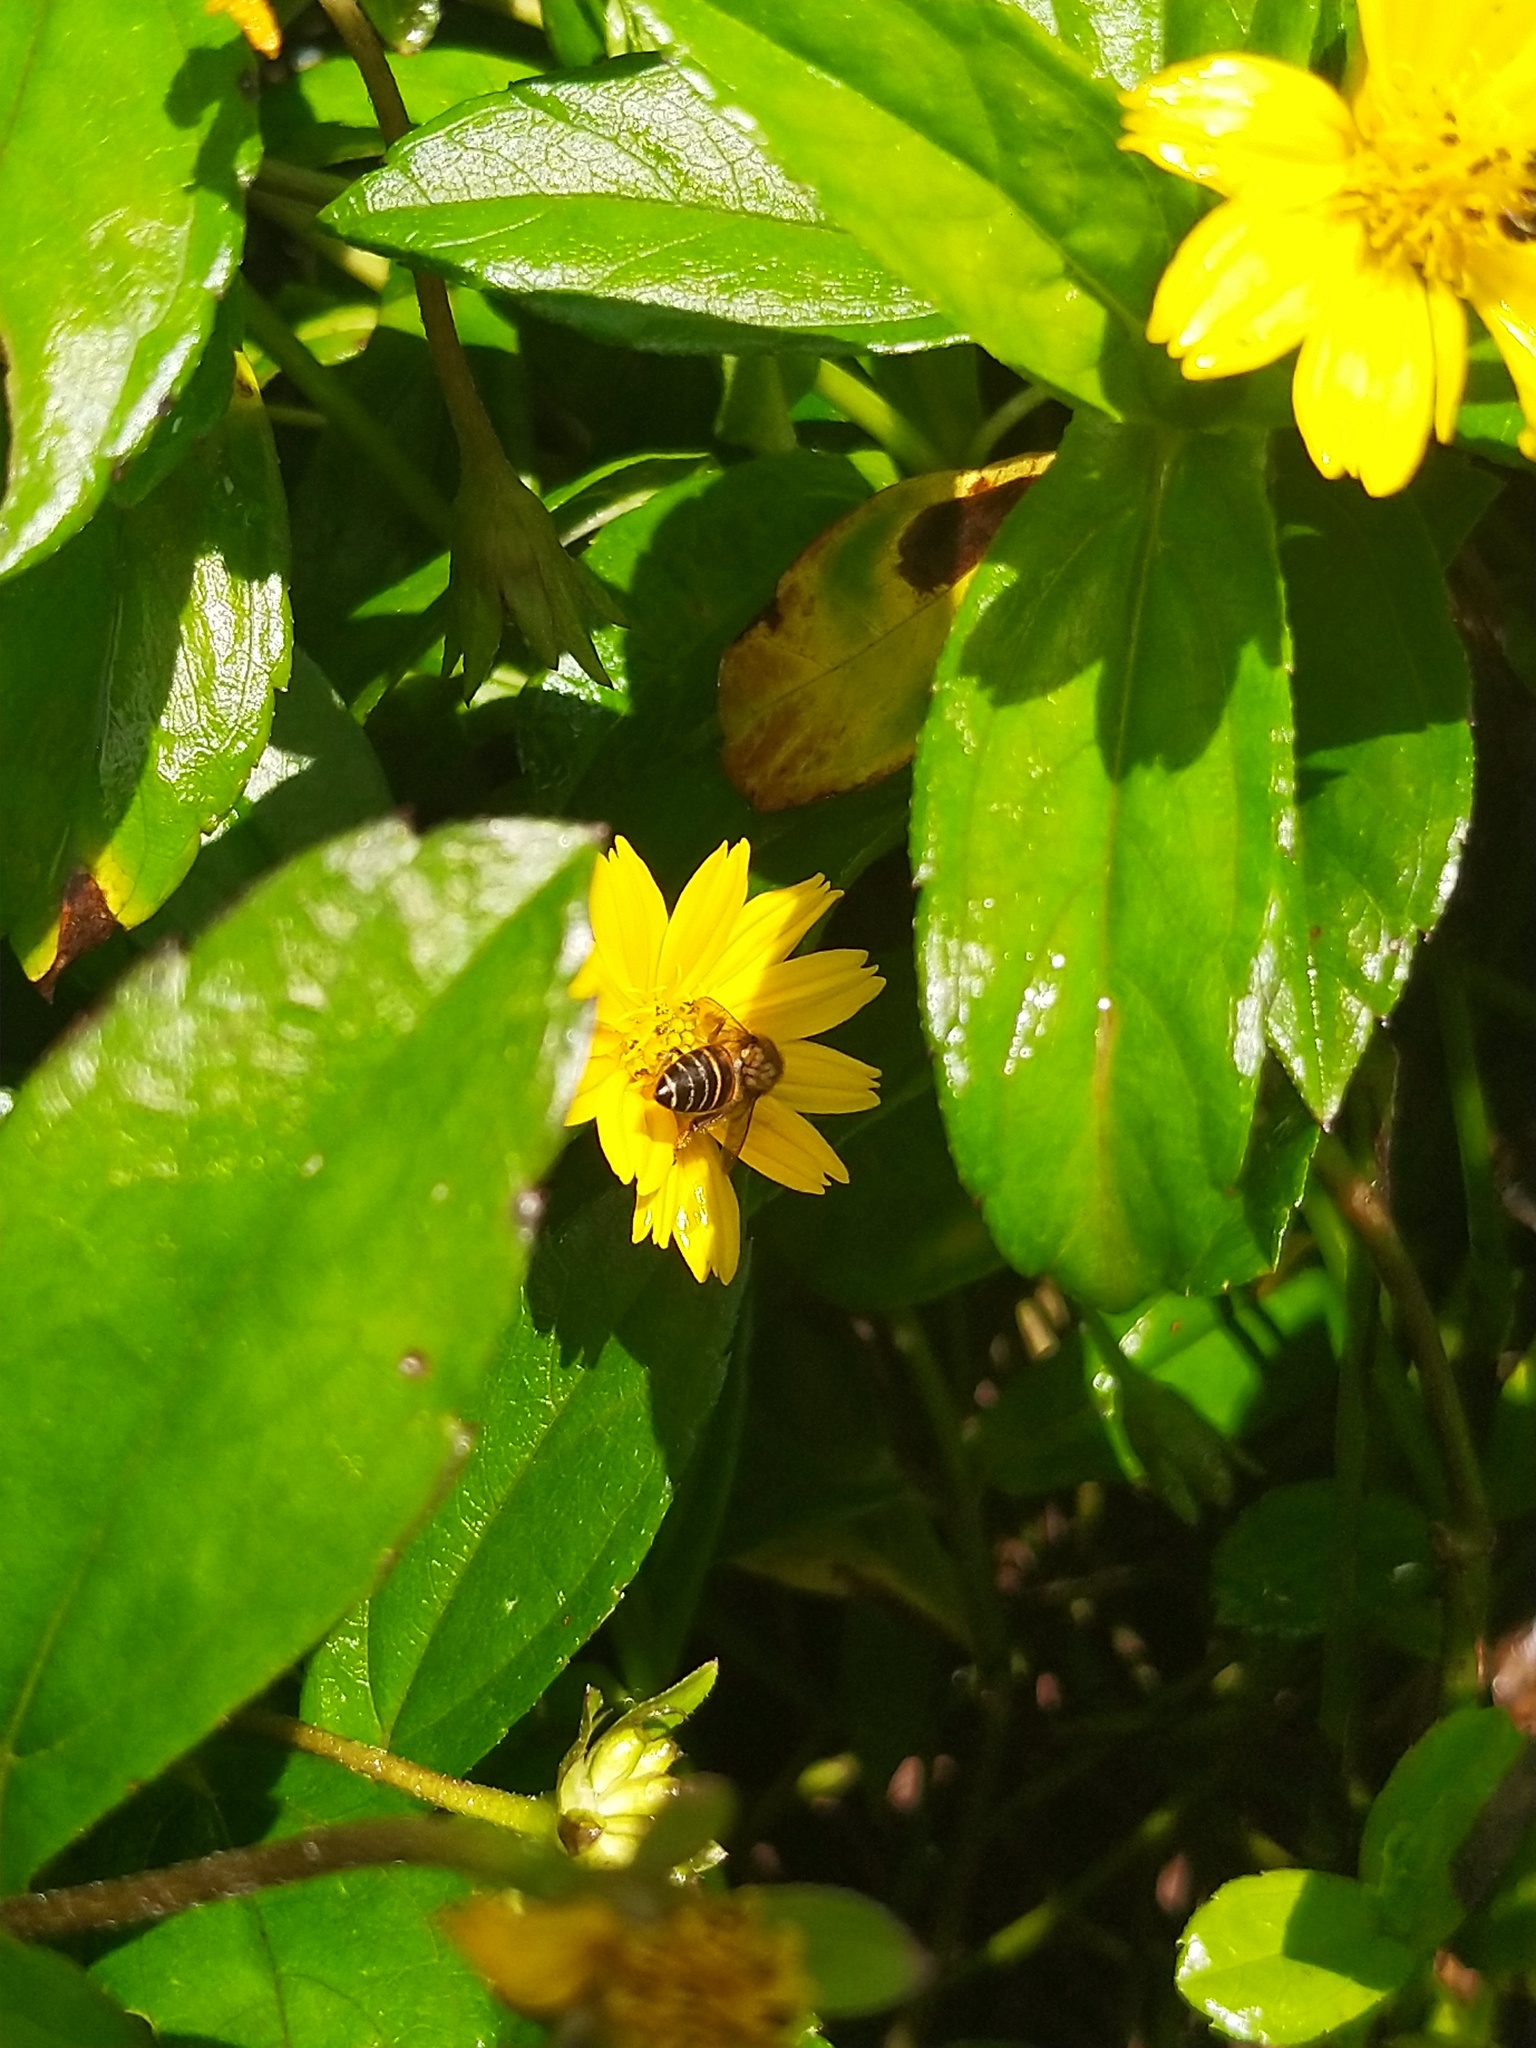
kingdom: Animalia
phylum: Arthropoda
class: Insecta
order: Hymenoptera
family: Apidae
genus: Apis
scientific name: Apis cerana
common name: Honey bee
